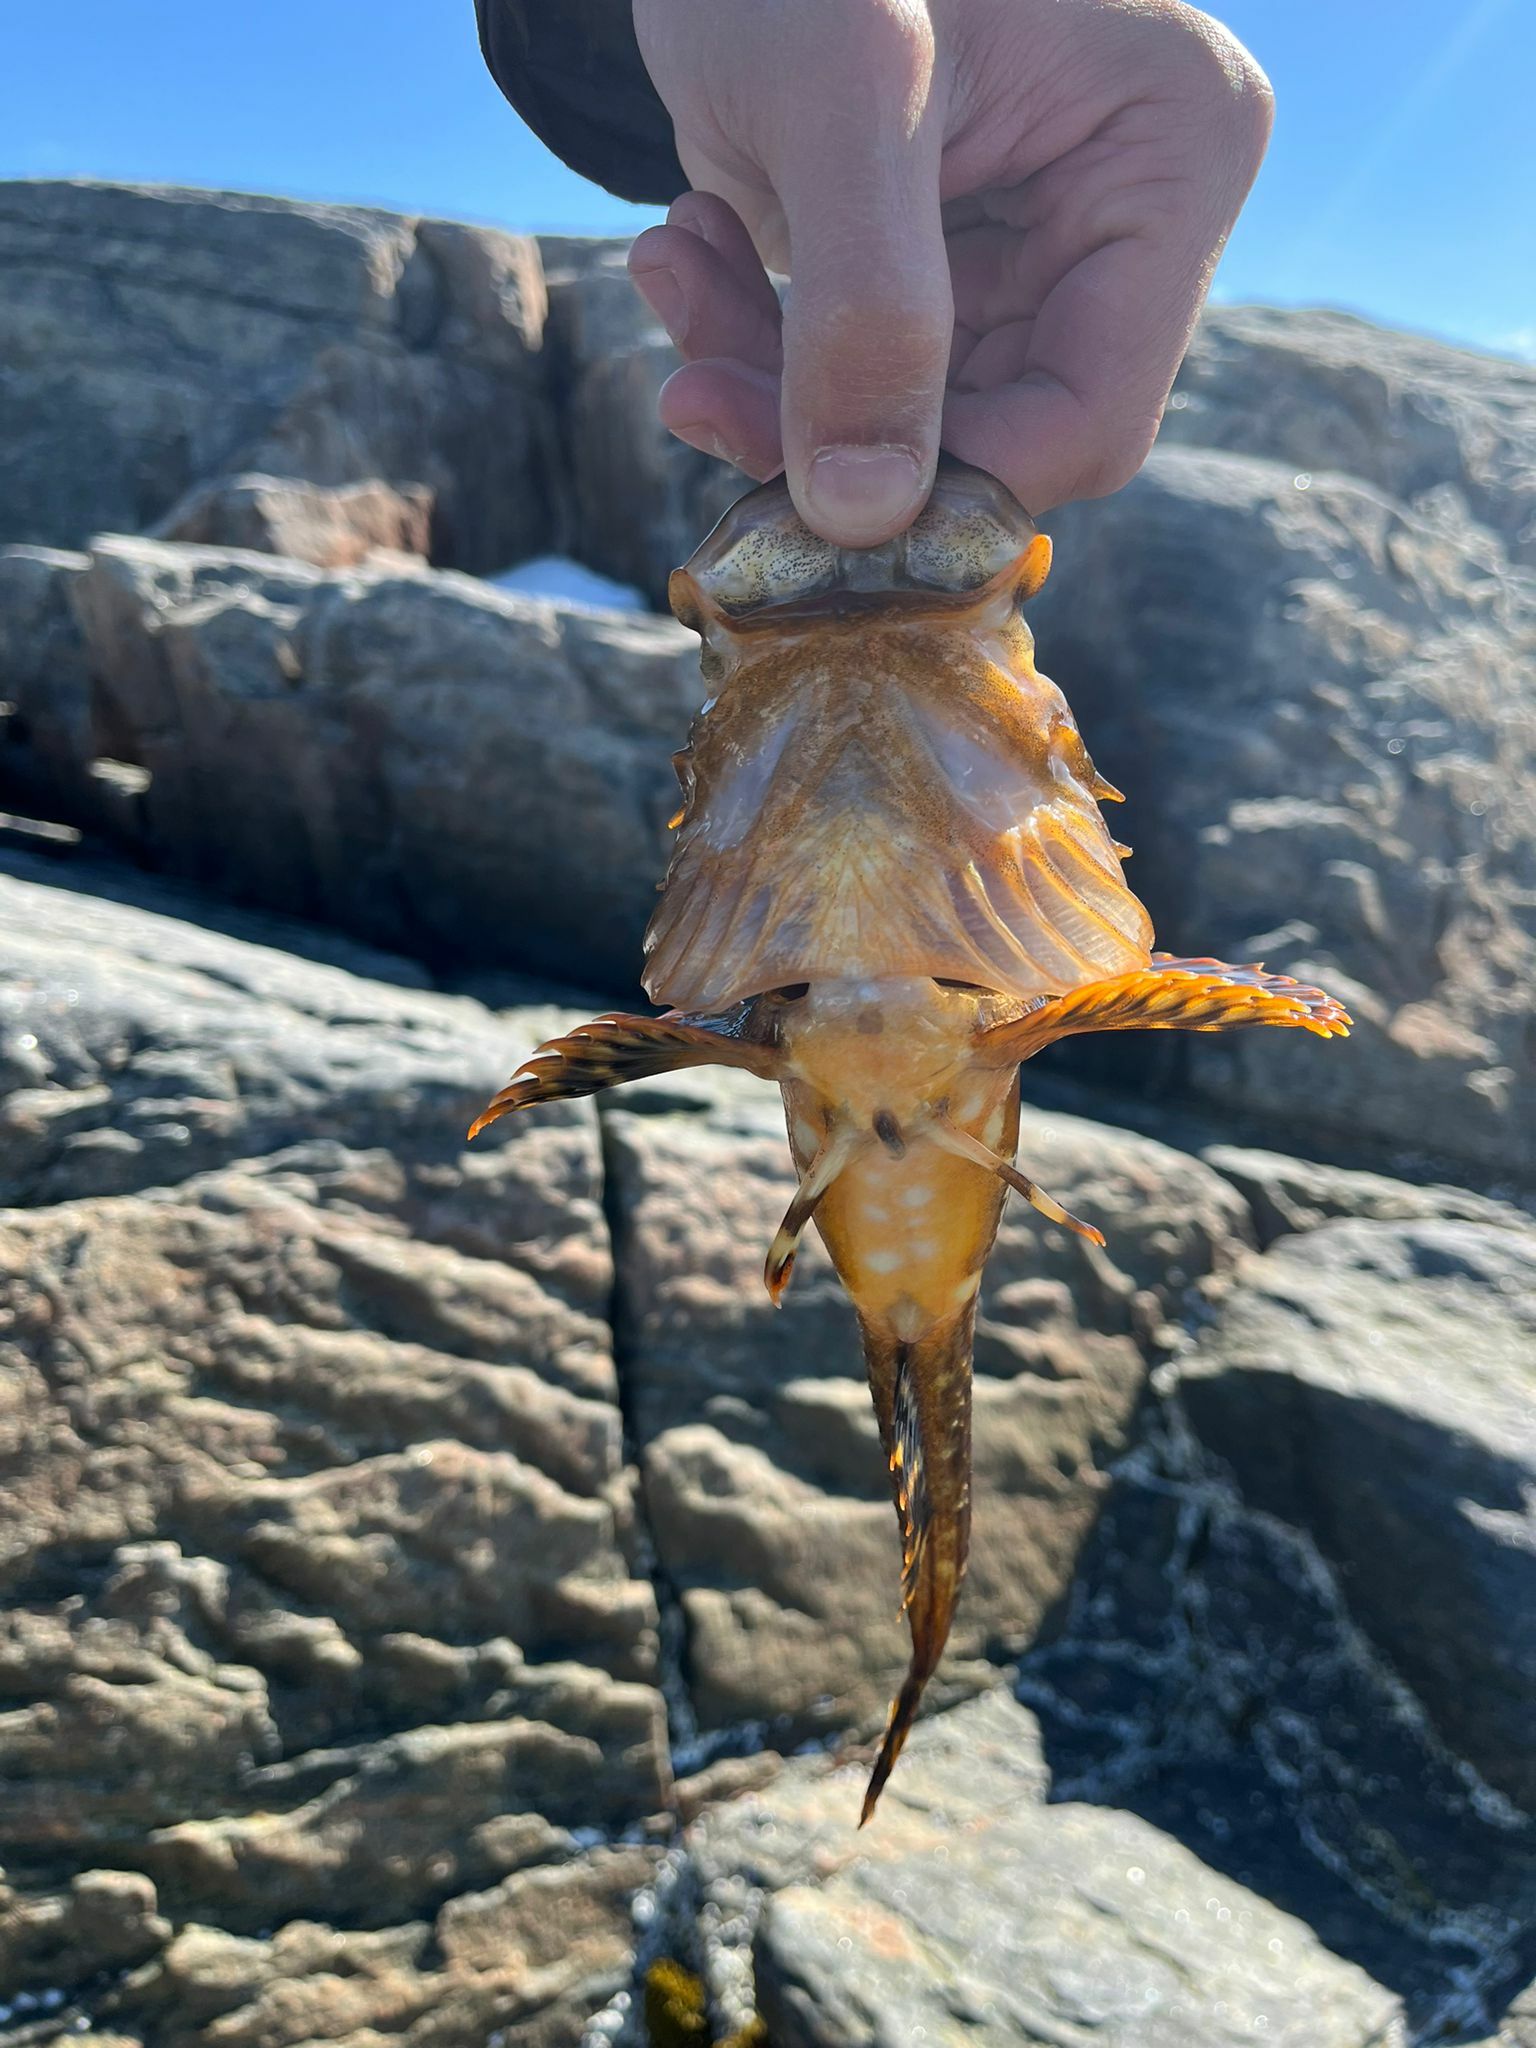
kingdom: Animalia
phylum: Chordata
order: Scorpaeniformes
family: Cottidae
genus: Myoxocephalus
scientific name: Myoxocephalus scorpius
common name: Shorthorn sculpin
